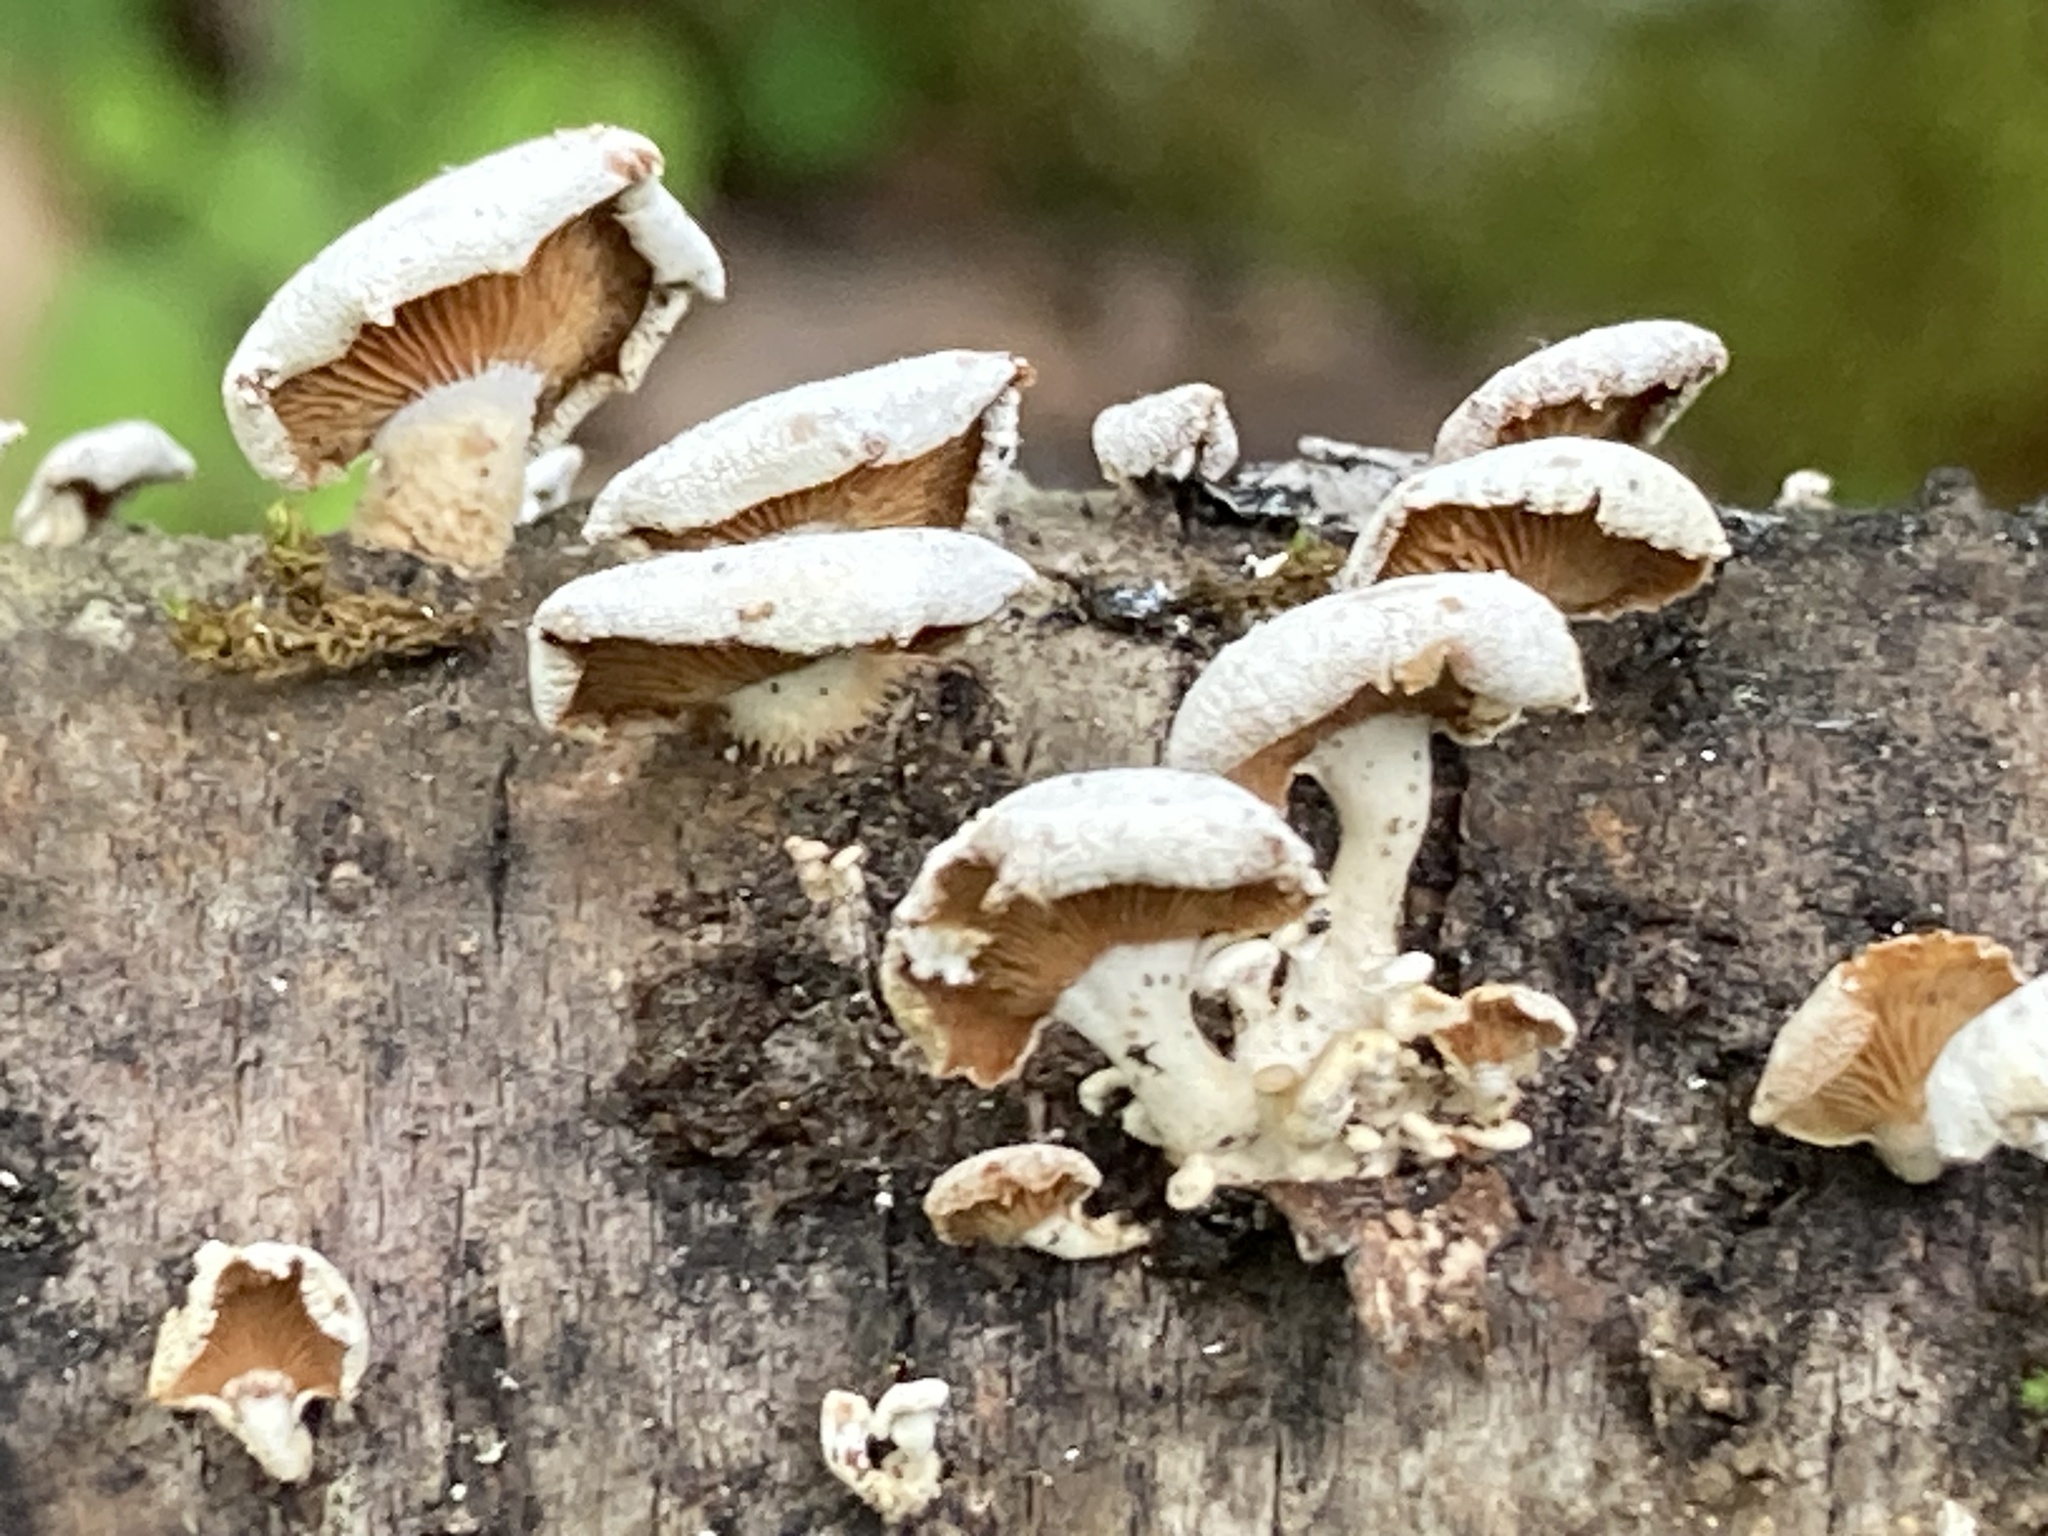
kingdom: Fungi
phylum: Basidiomycota
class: Agaricomycetes
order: Agaricales
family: Mycenaceae
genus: Panellus
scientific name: Panellus stipticus
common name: Bitter oysterling
